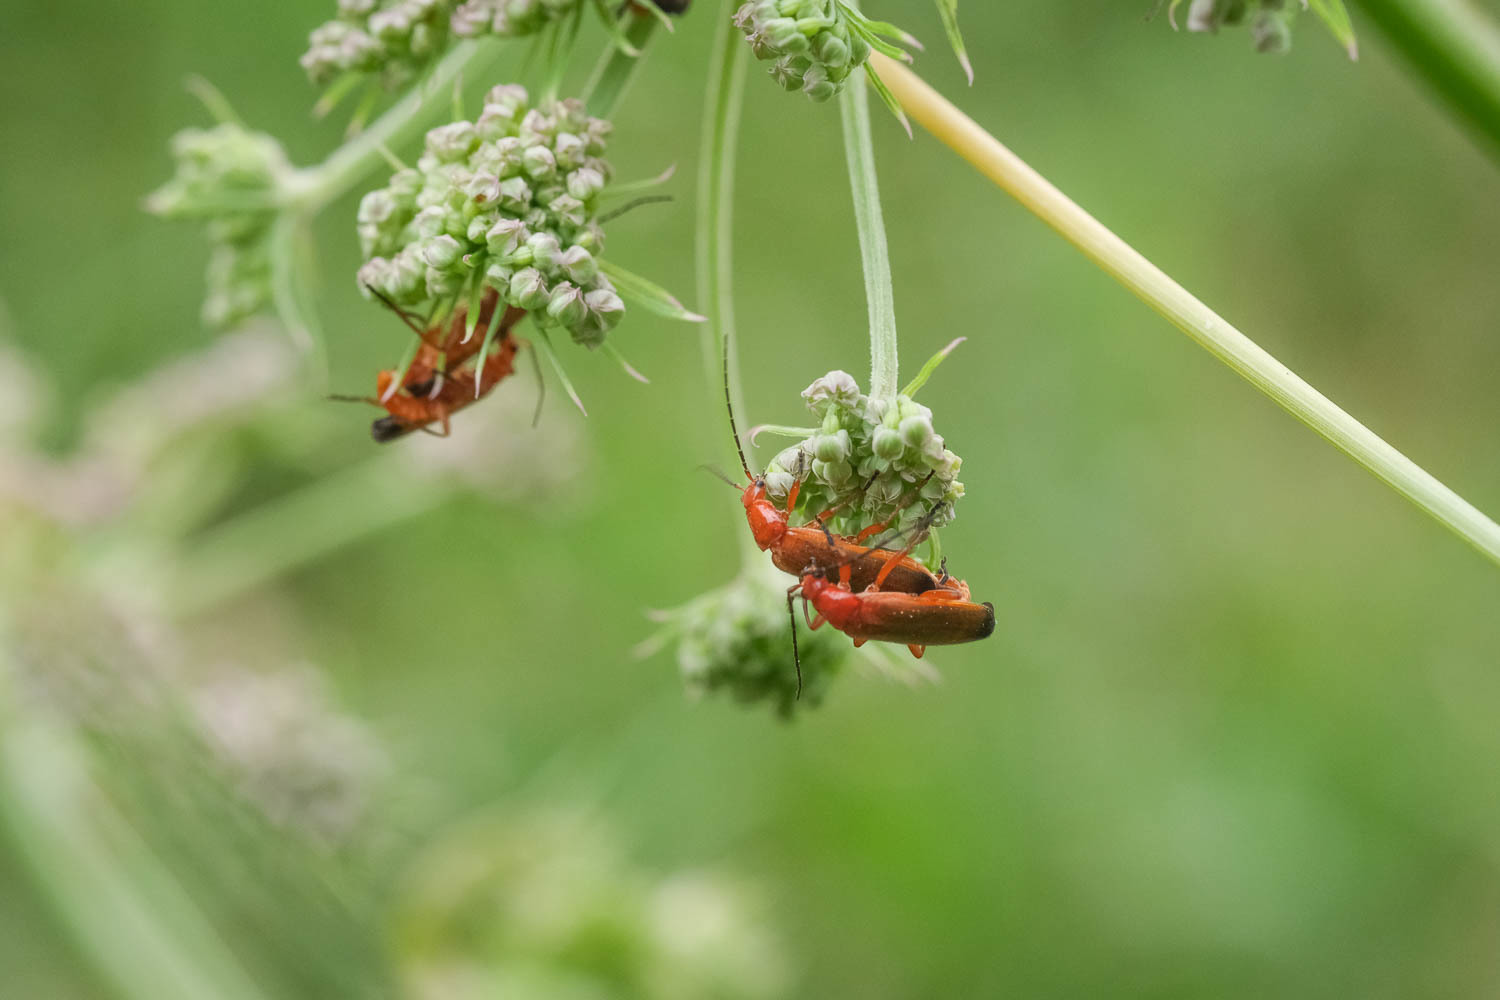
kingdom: Animalia
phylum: Arthropoda
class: Insecta
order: Coleoptera
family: Cantharidae
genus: Rhagonycha
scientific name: Rhagonycha fulva
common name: Common red soldier beetle
